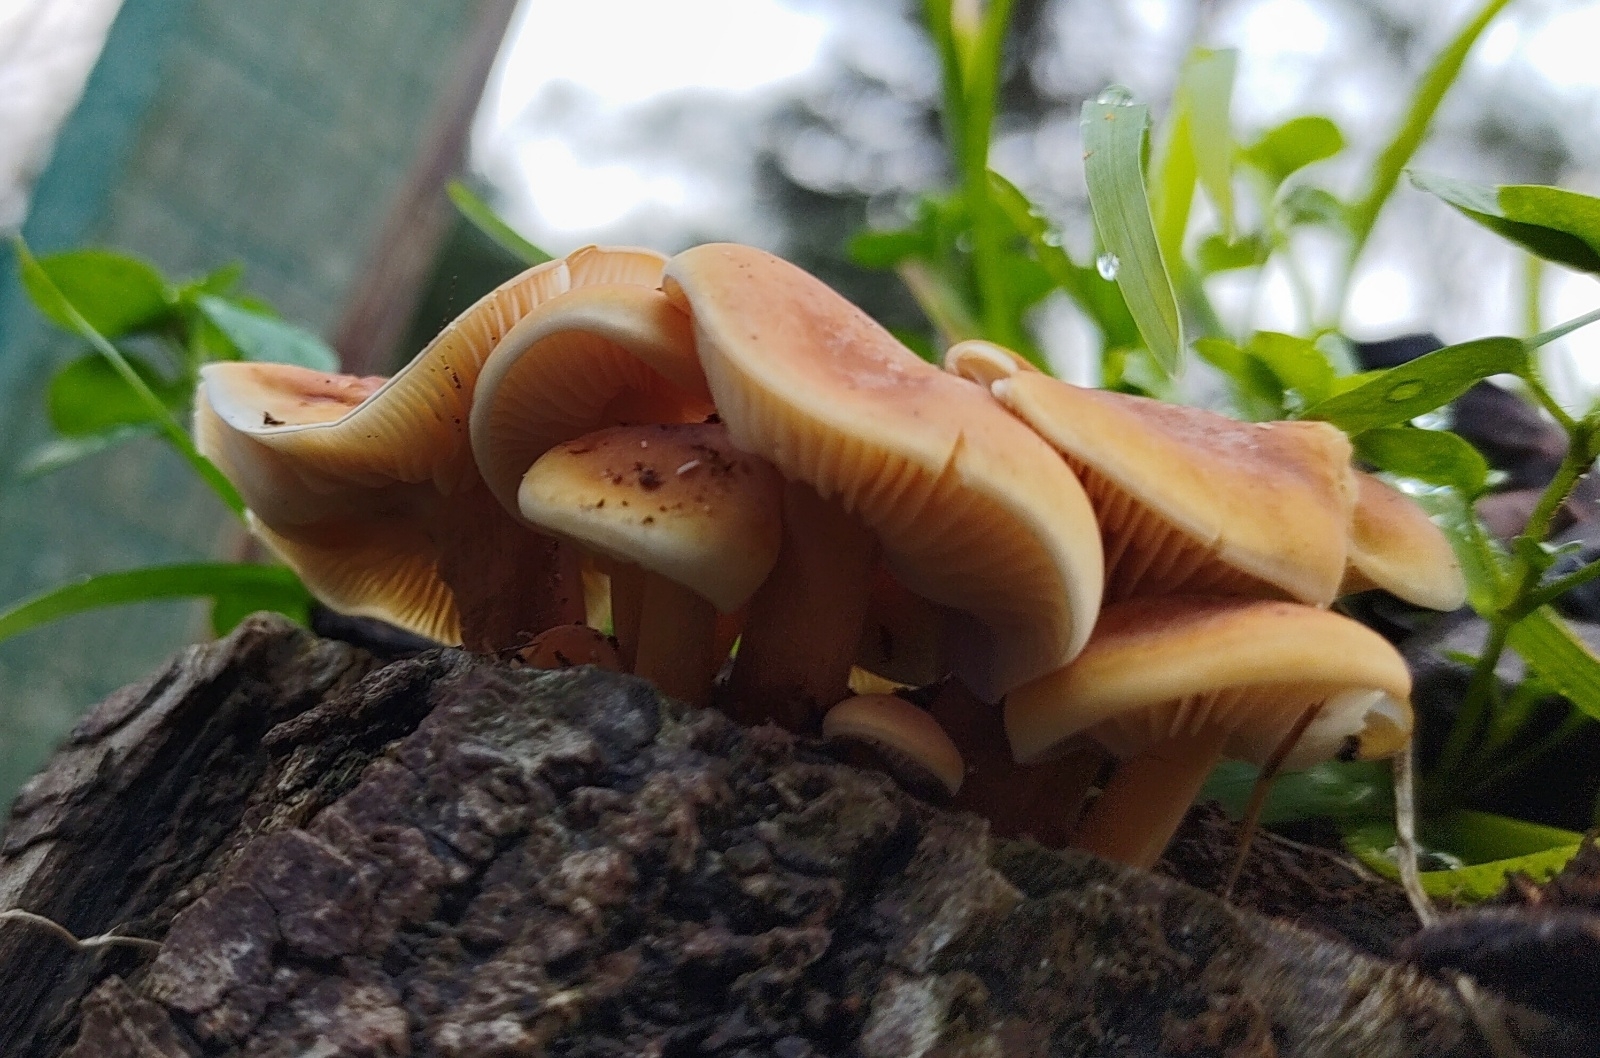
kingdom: Fungi
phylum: Basidiomycota
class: Agaricomycetes
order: Agaricales
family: Physalacriaceae
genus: Flammulina
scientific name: Flammulina
